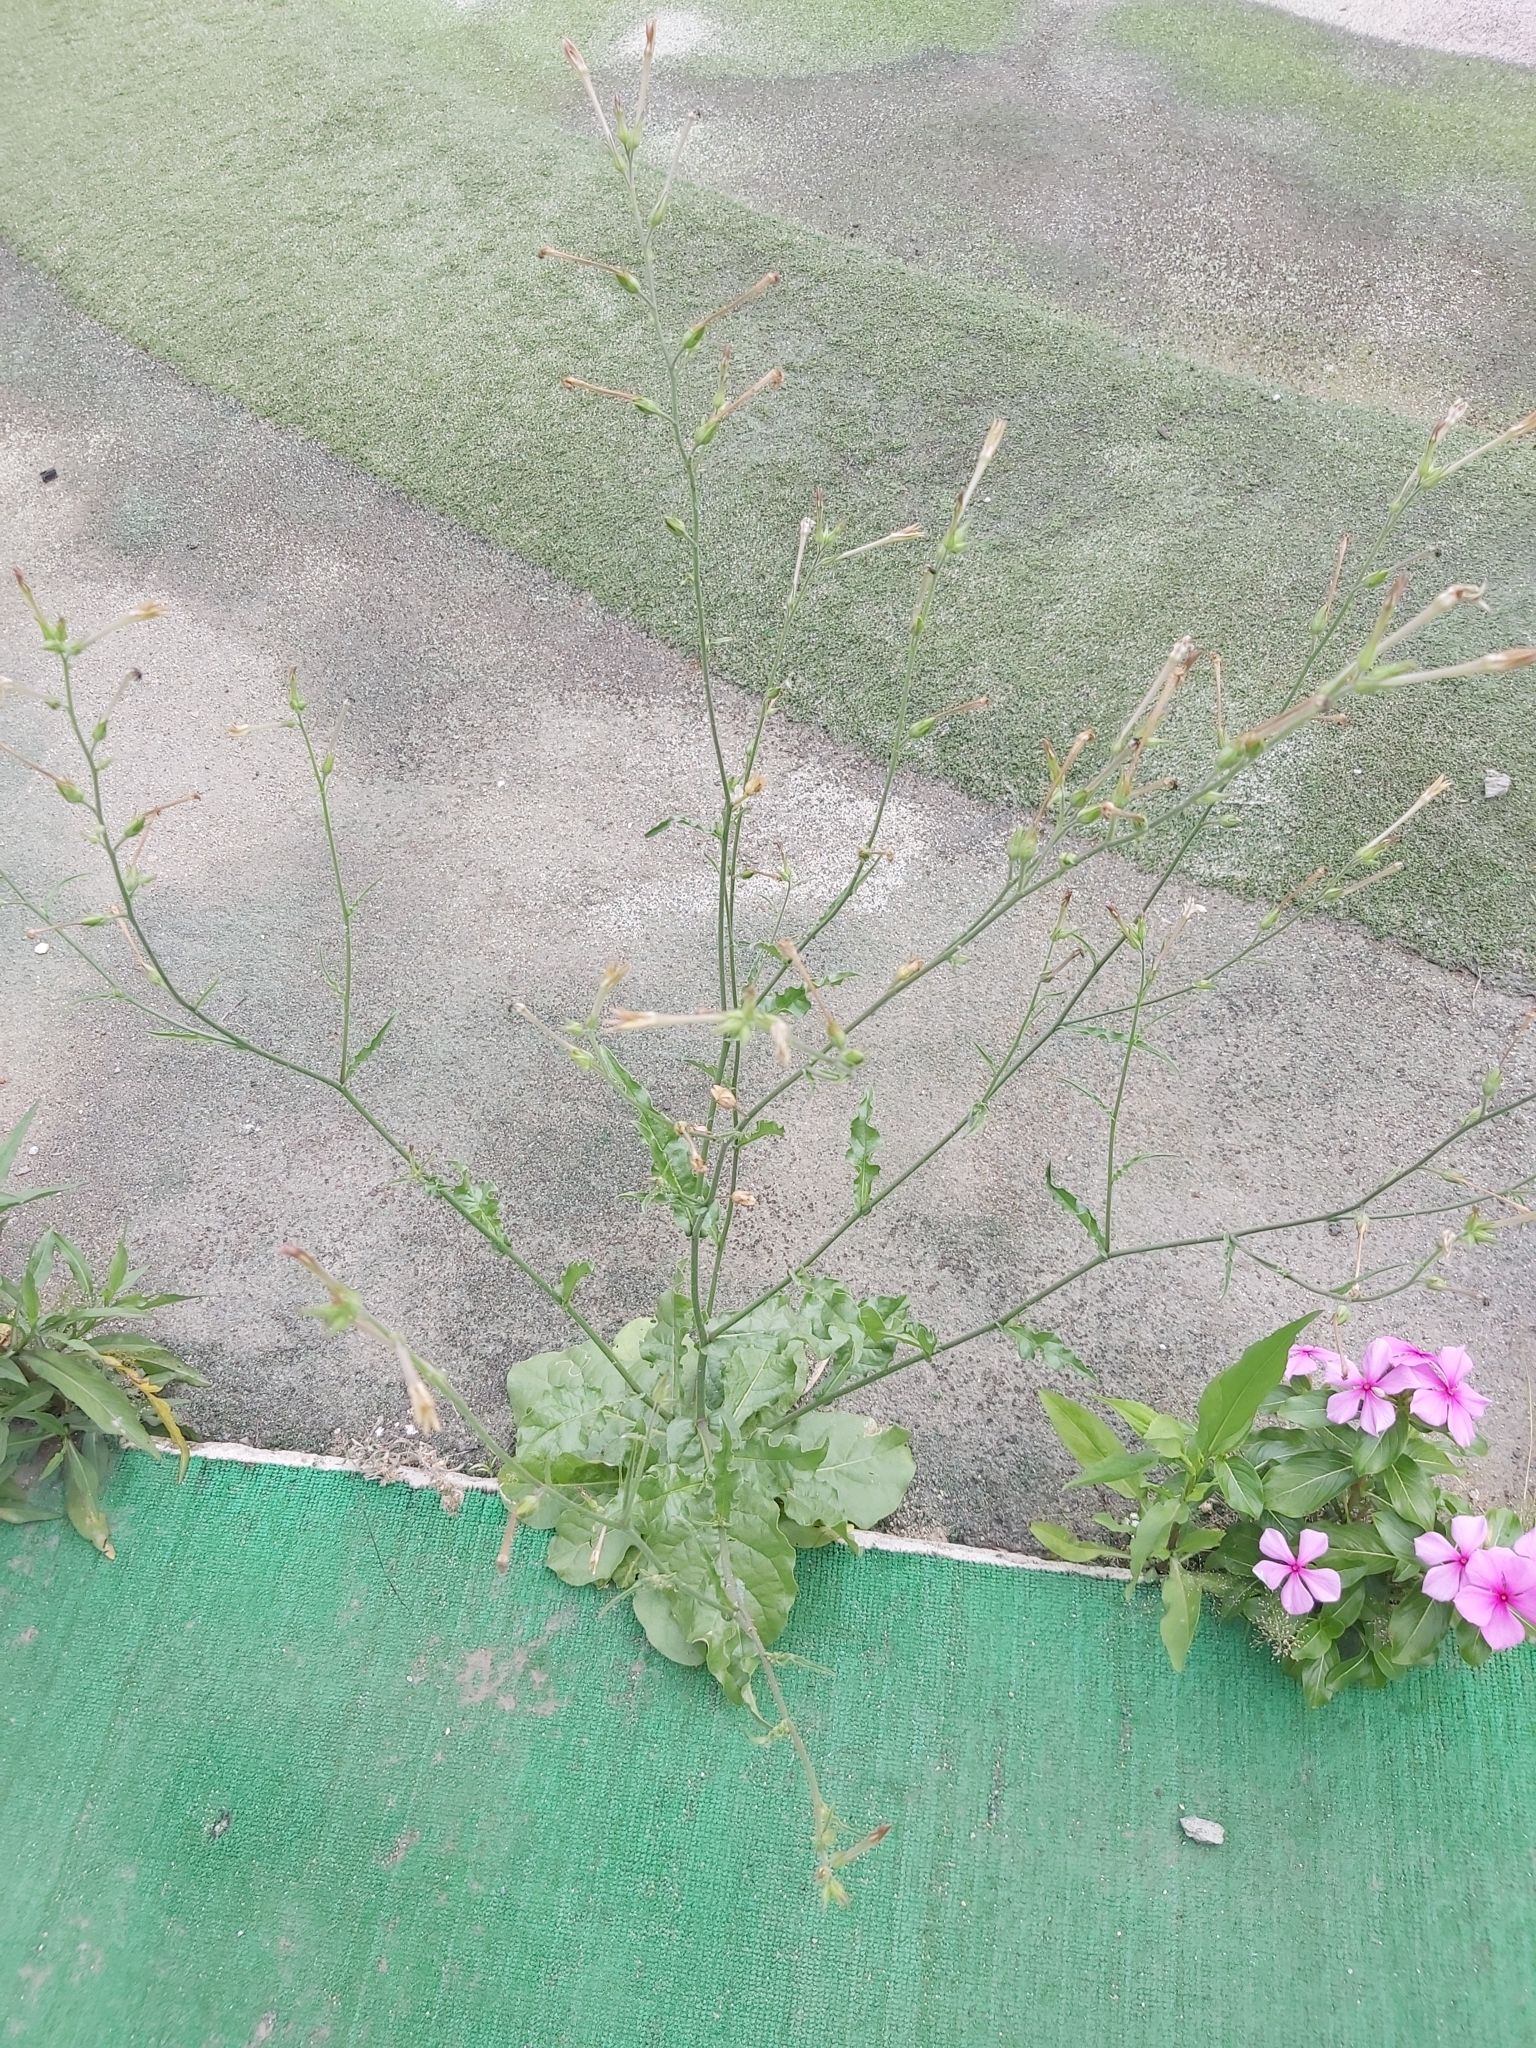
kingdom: Plantae
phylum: Tracheophyta
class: Magnoliopsida
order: Solanales
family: Solanaceae
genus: Nicotiana
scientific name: Nicotiana plumbaginifolia
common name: Tex-mex tobacco
